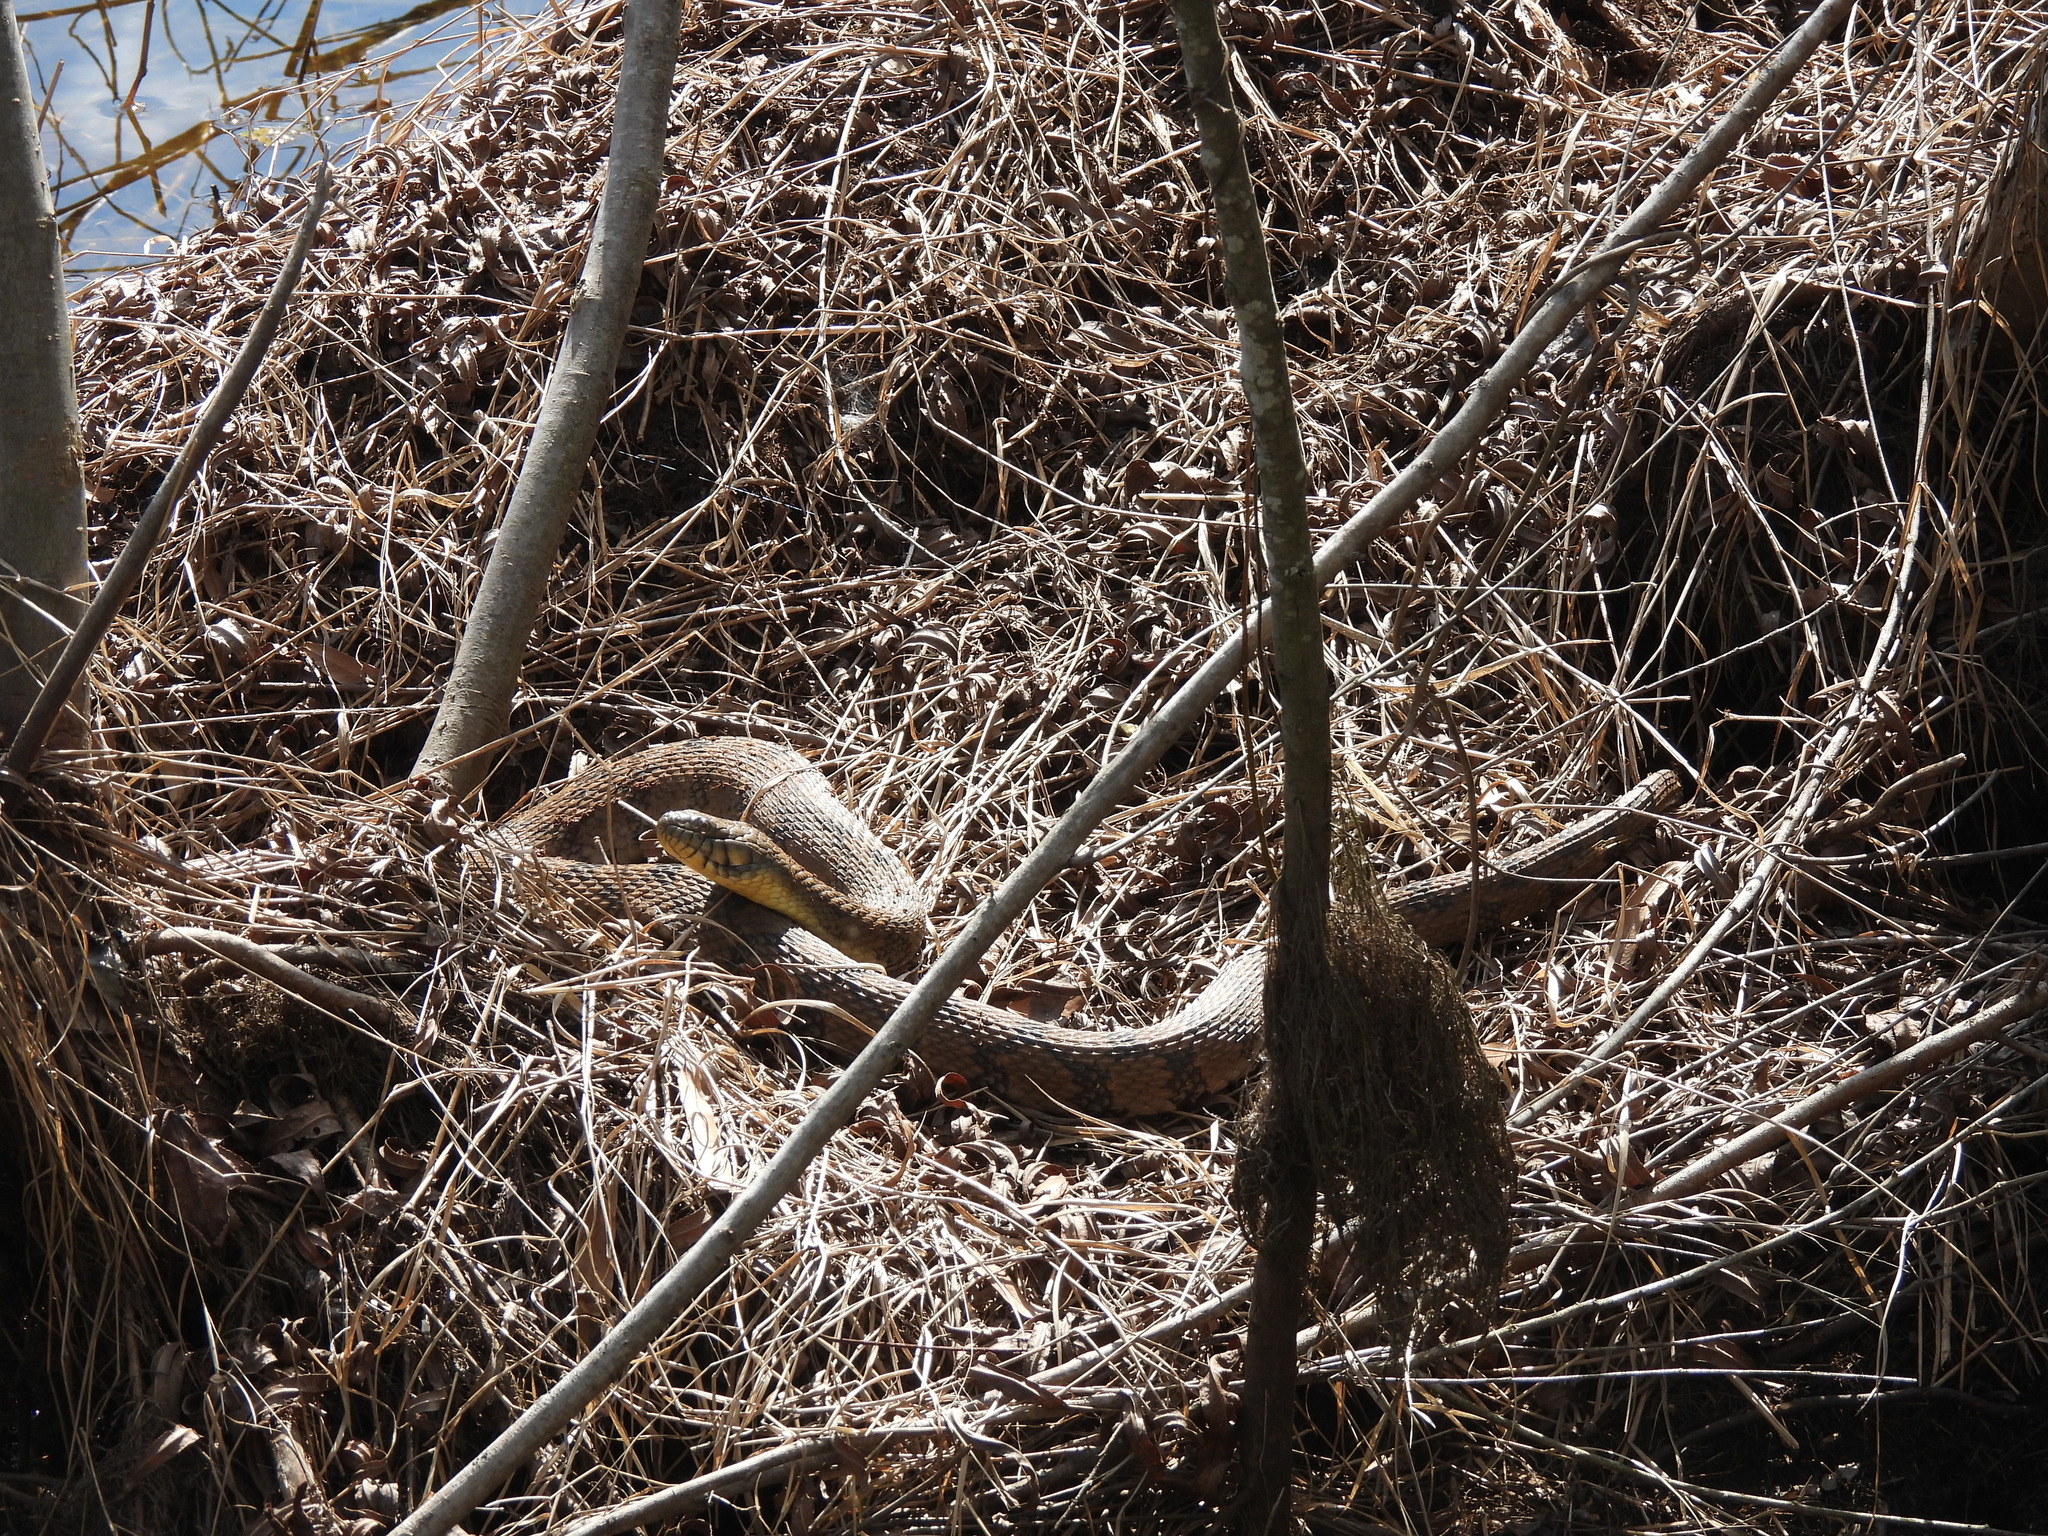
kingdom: Animalia
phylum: Chordata
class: Squamata
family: Colubridae
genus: Nerodia
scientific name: Nerodia rhombifer
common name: Diamondback water snake
